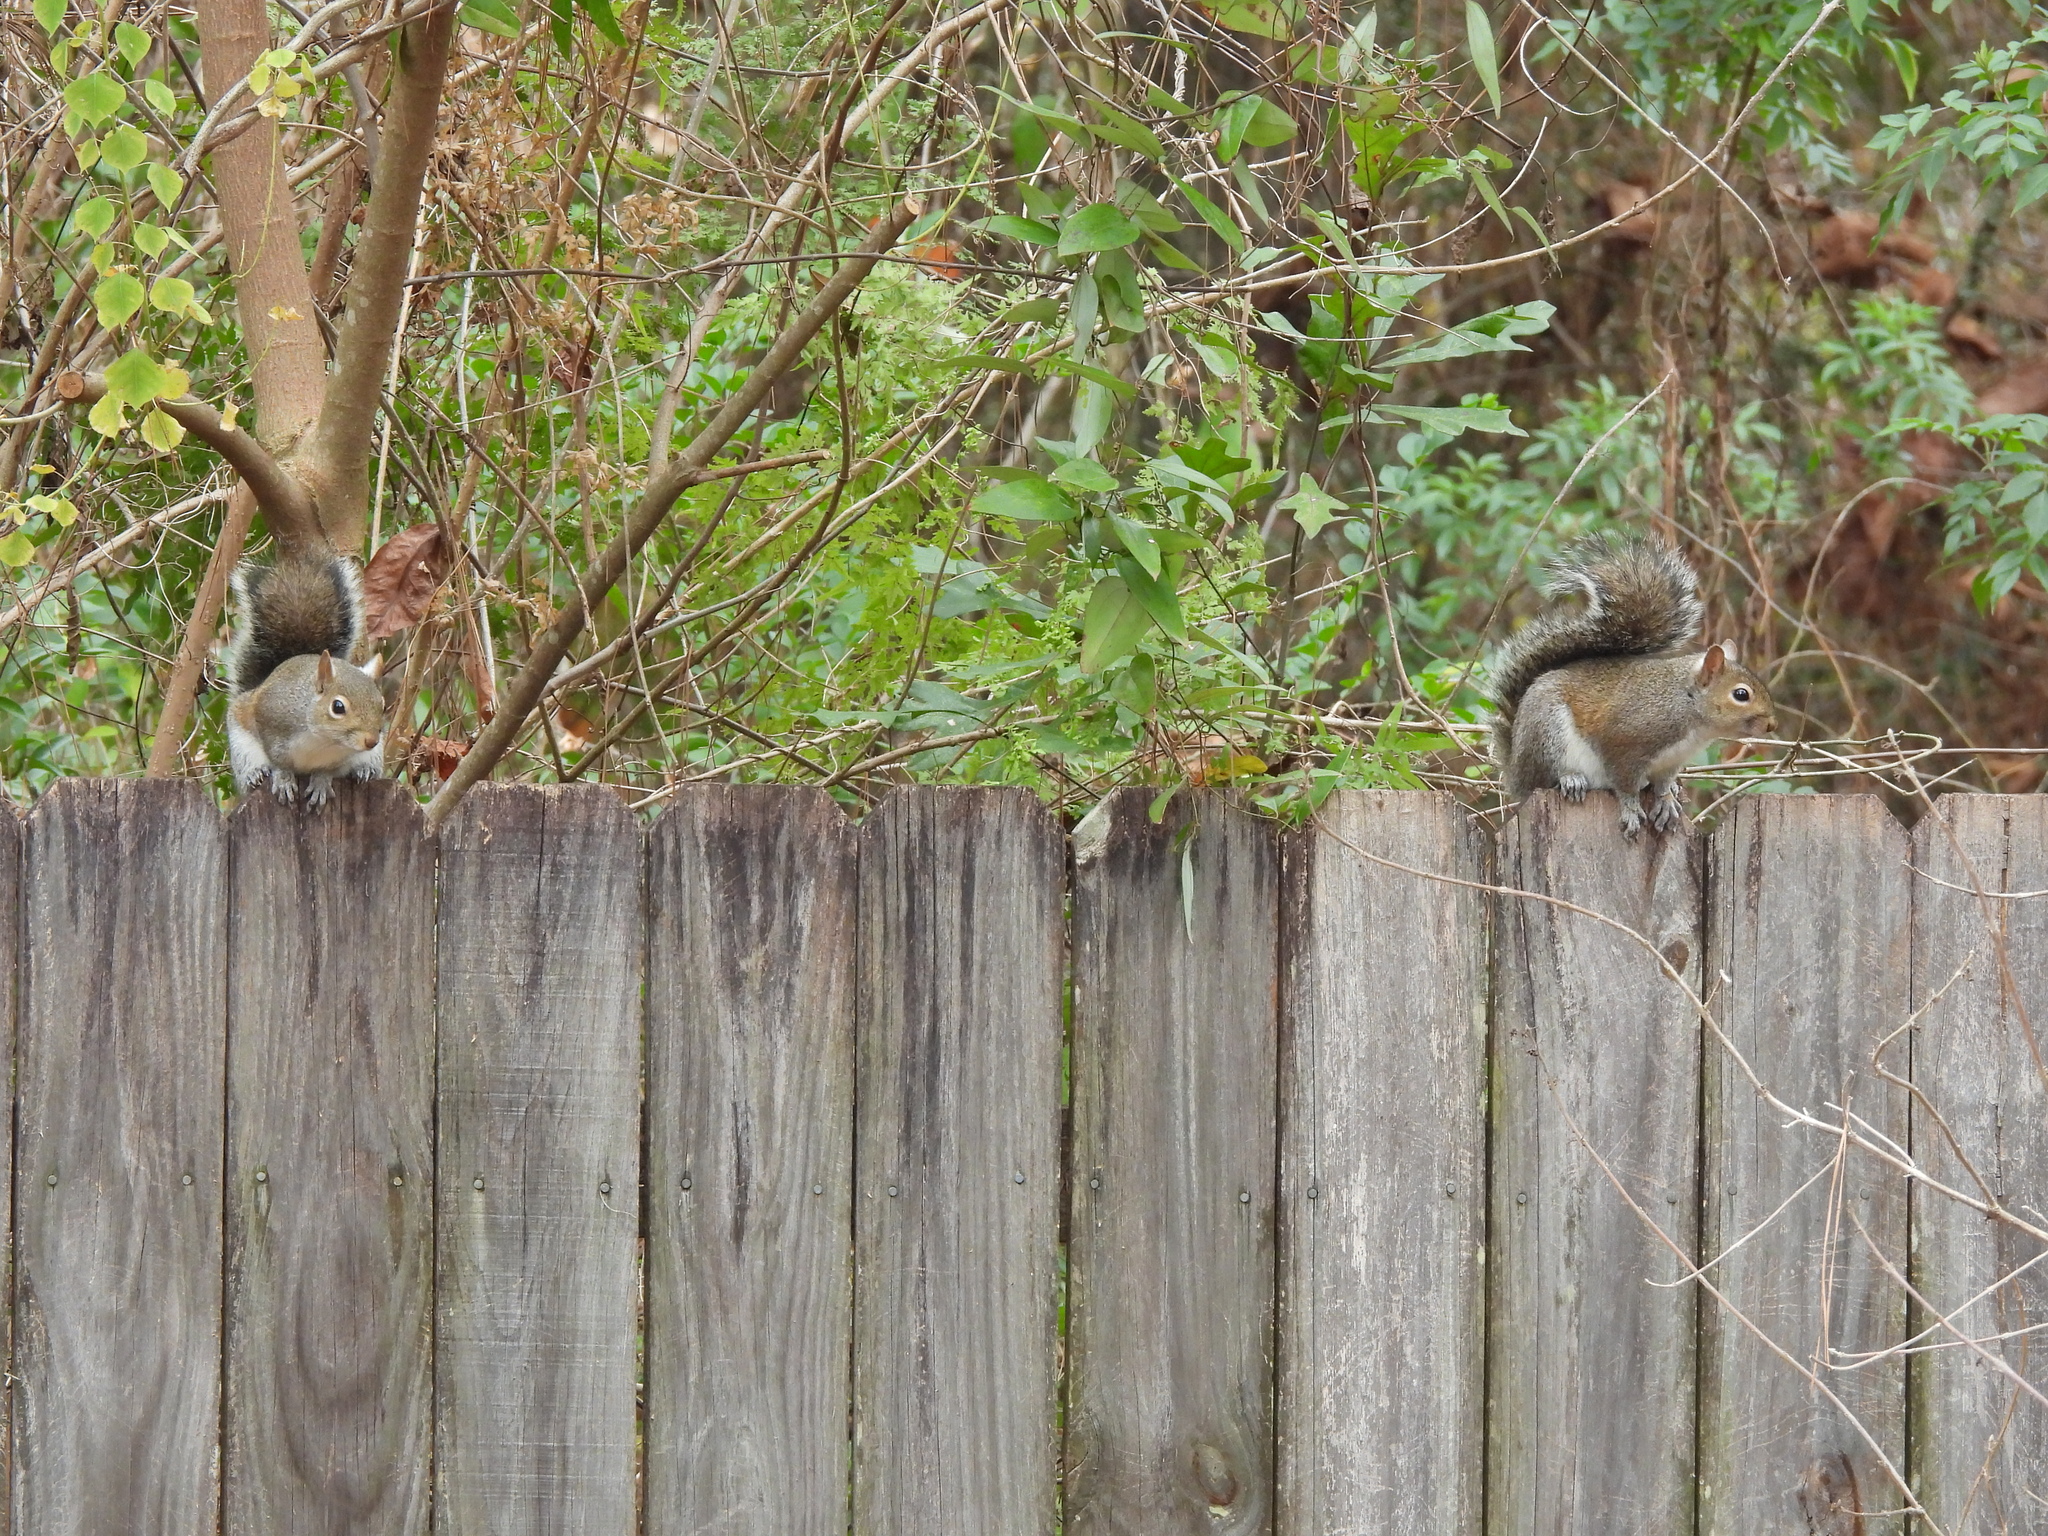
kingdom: Animalia
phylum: Chordata
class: Mammalia
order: Rodentia
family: Sciuridae
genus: Sciurus
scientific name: Sciurus carolinensis
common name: Eastern gray squirrel
